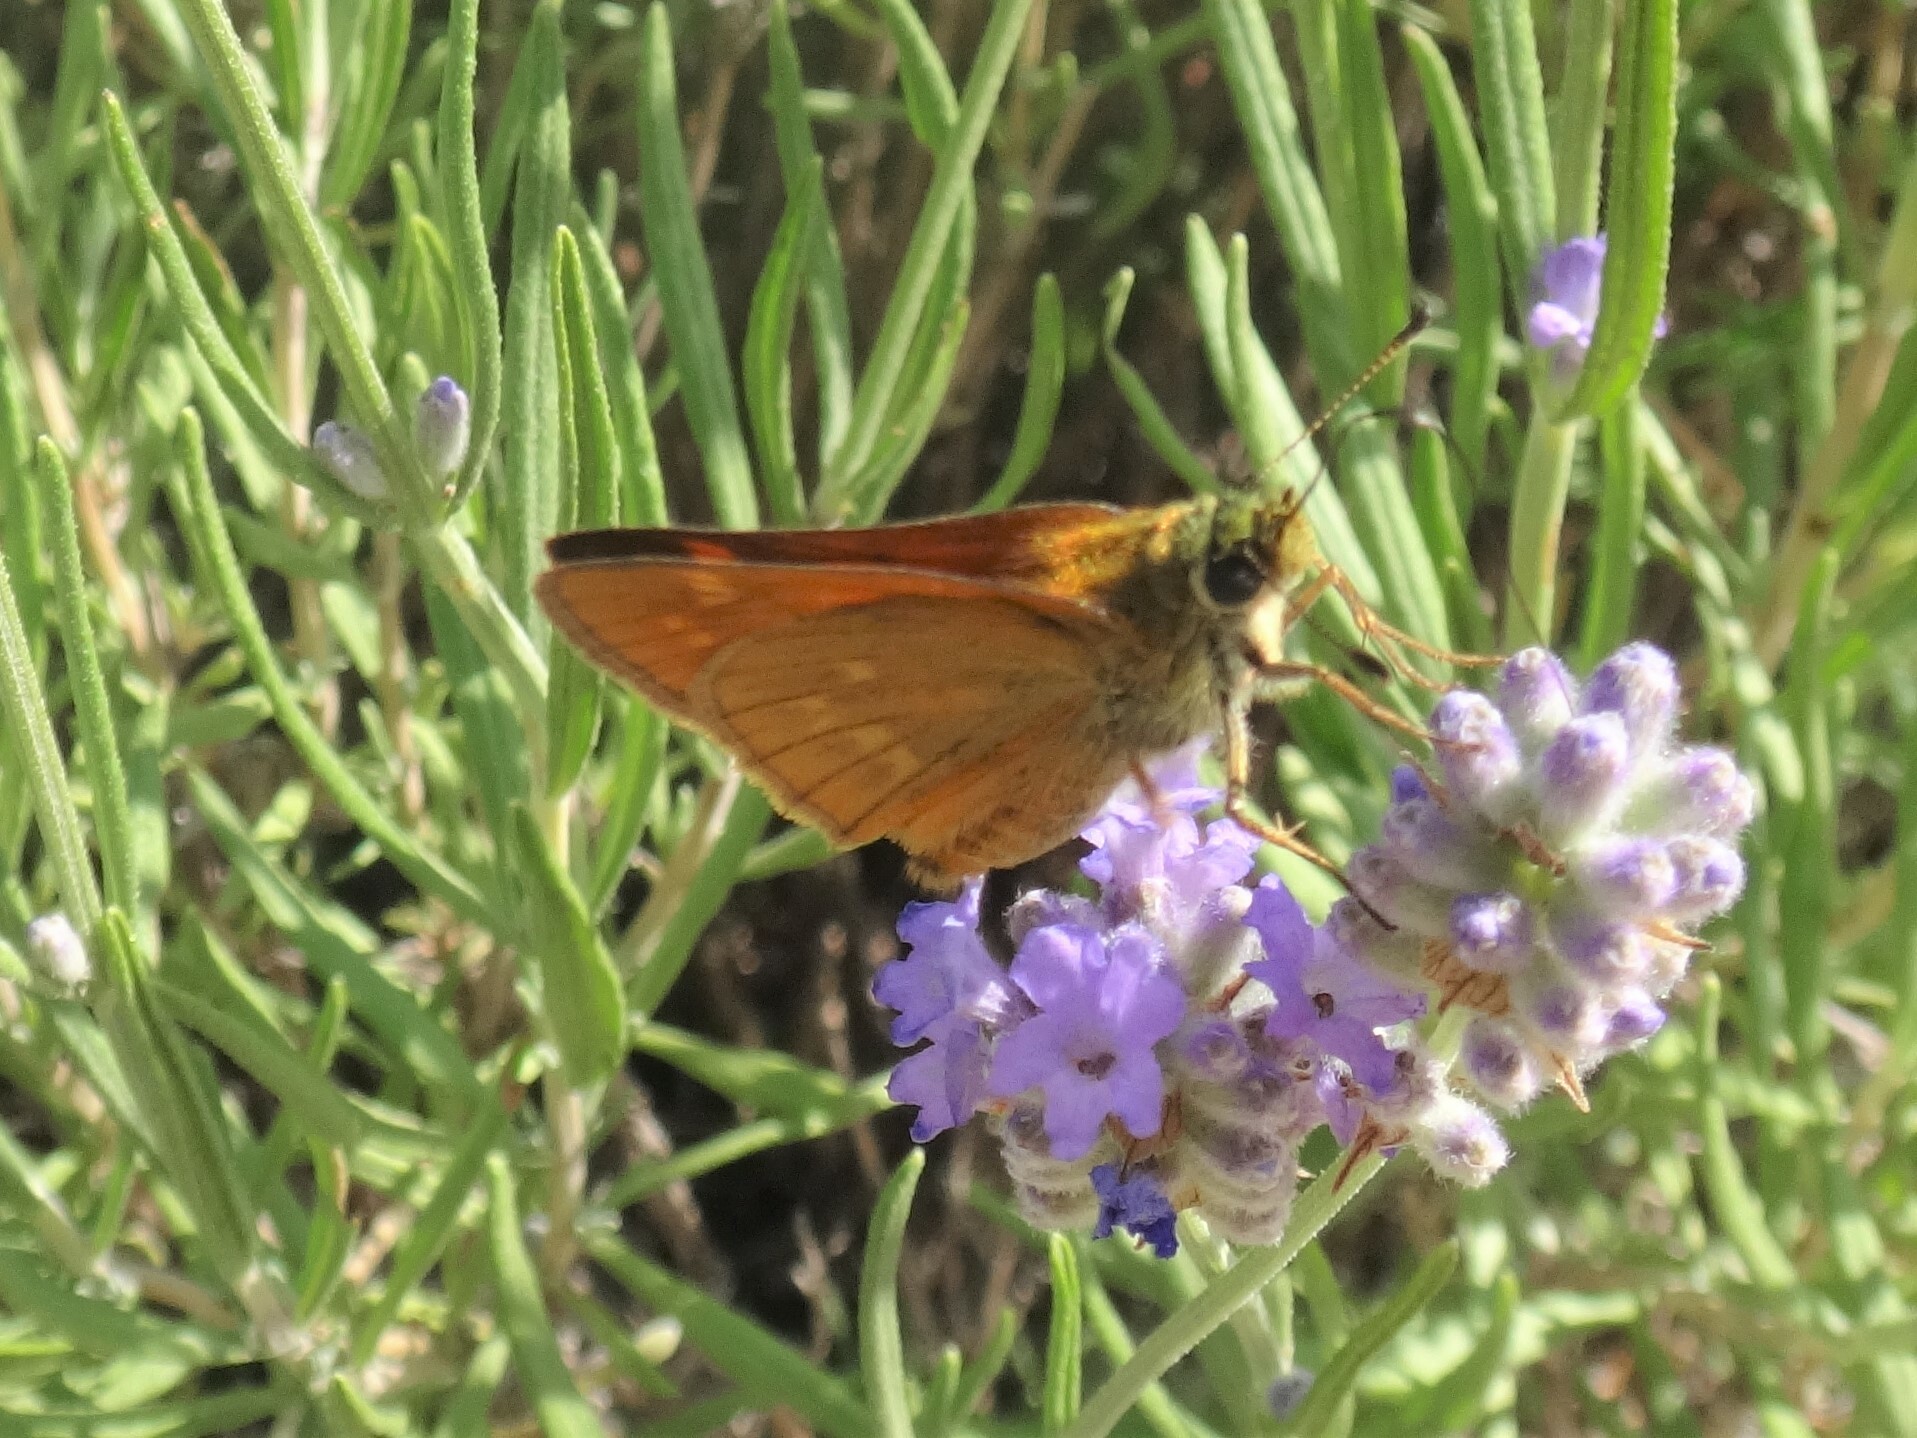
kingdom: Animalia
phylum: Arthropoda
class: Insecta
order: Lepidoptera
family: Hesperiidae
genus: Ochlodes
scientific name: Ochlodes venata
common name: Large skipper
